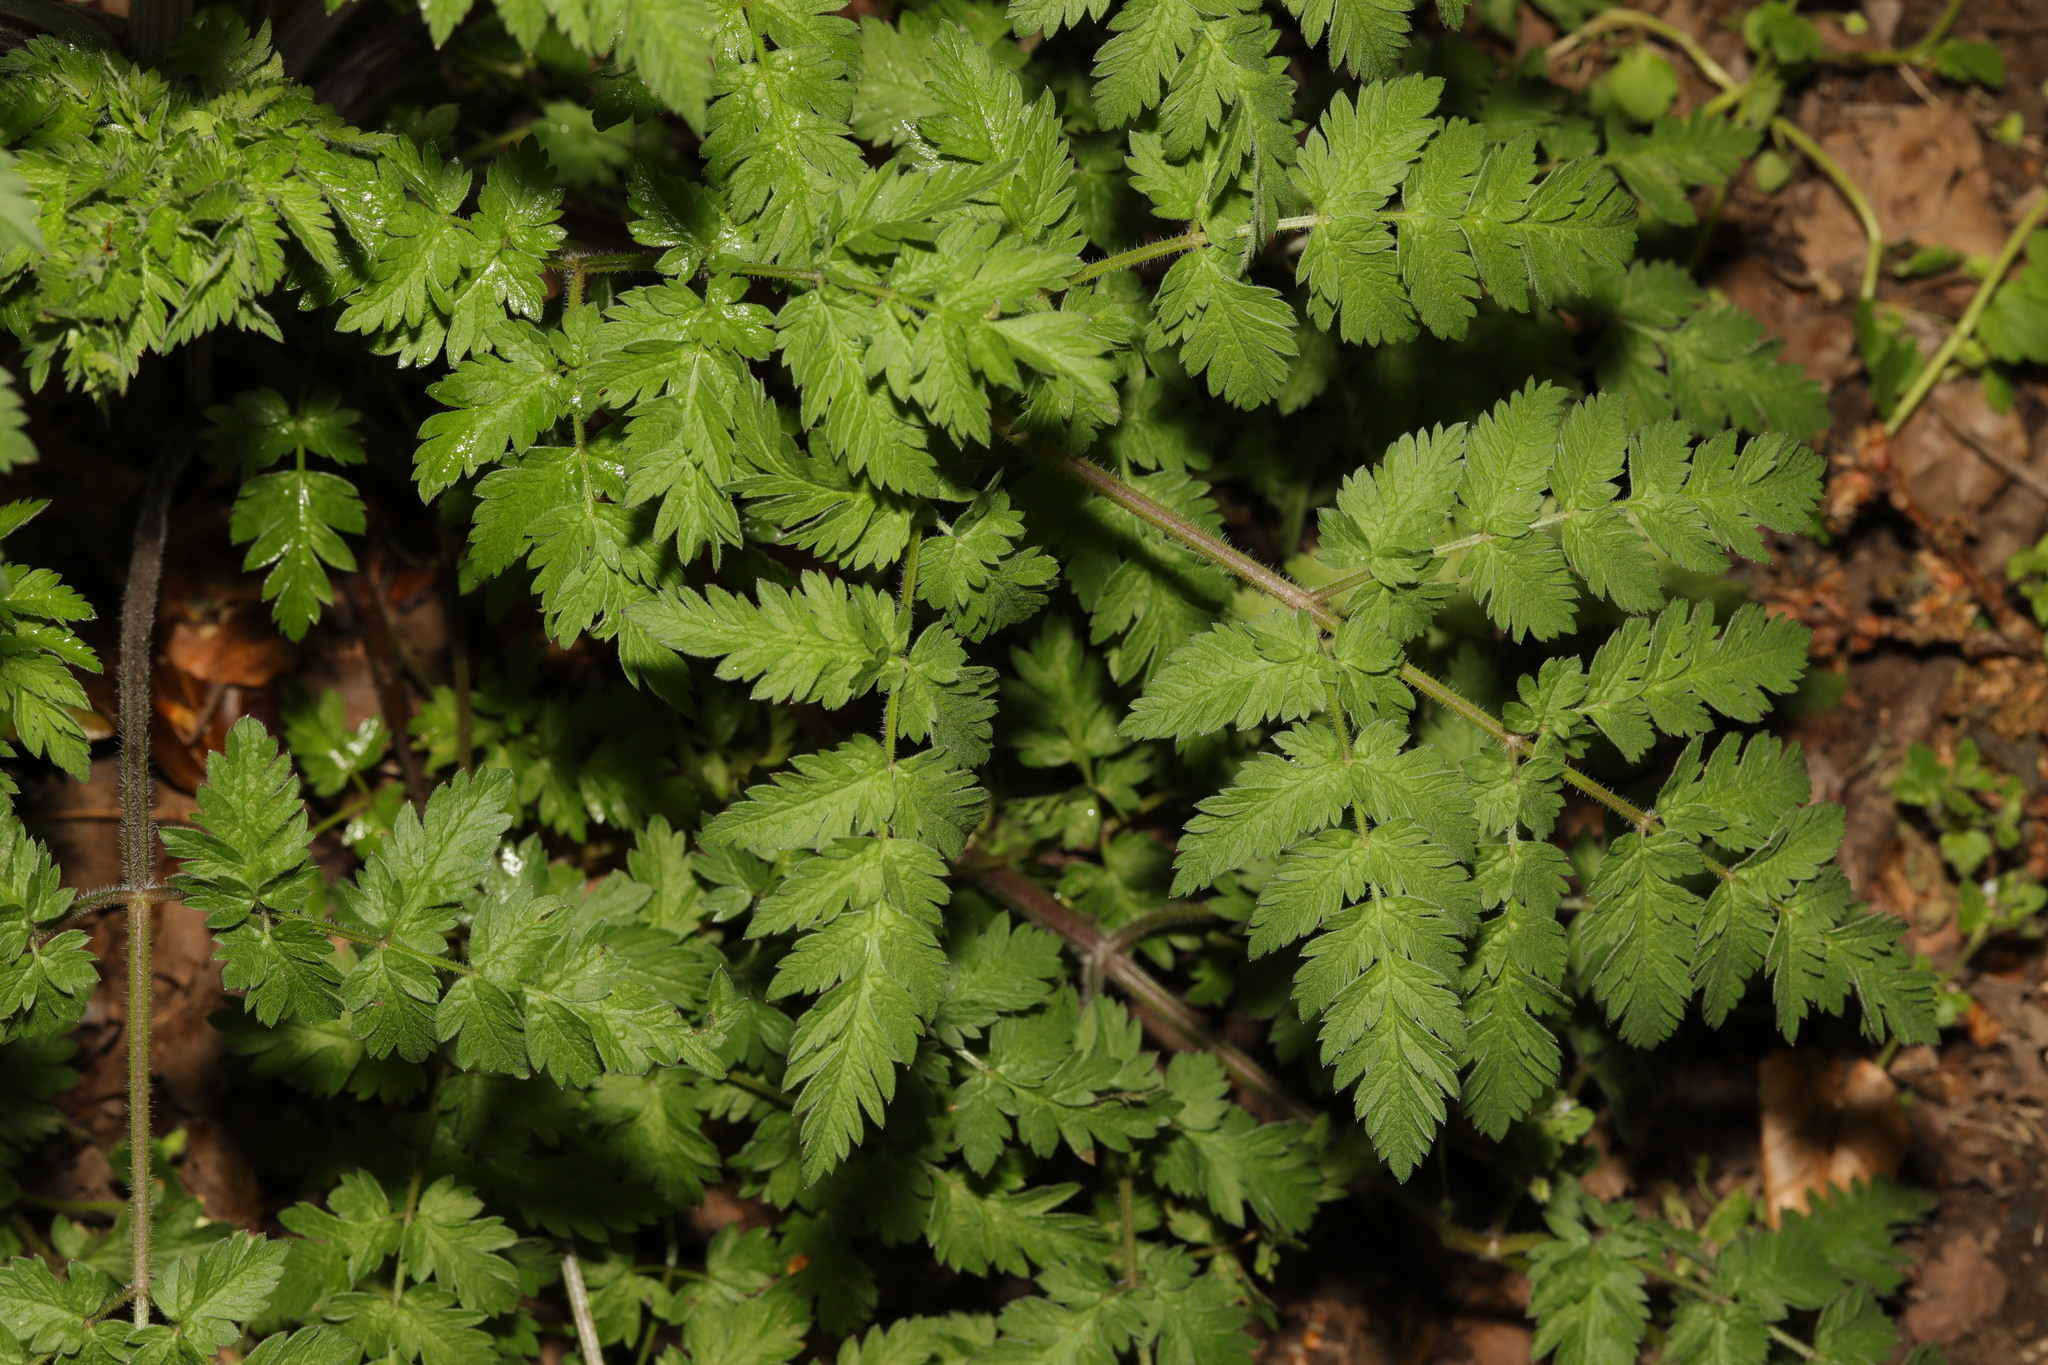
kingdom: Plantae
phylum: Tracheophyta
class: Magnoliopsida
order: Apiales
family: Apiaceae
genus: Anthriscus
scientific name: Anthriscus sylvestris
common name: Cow parsley
